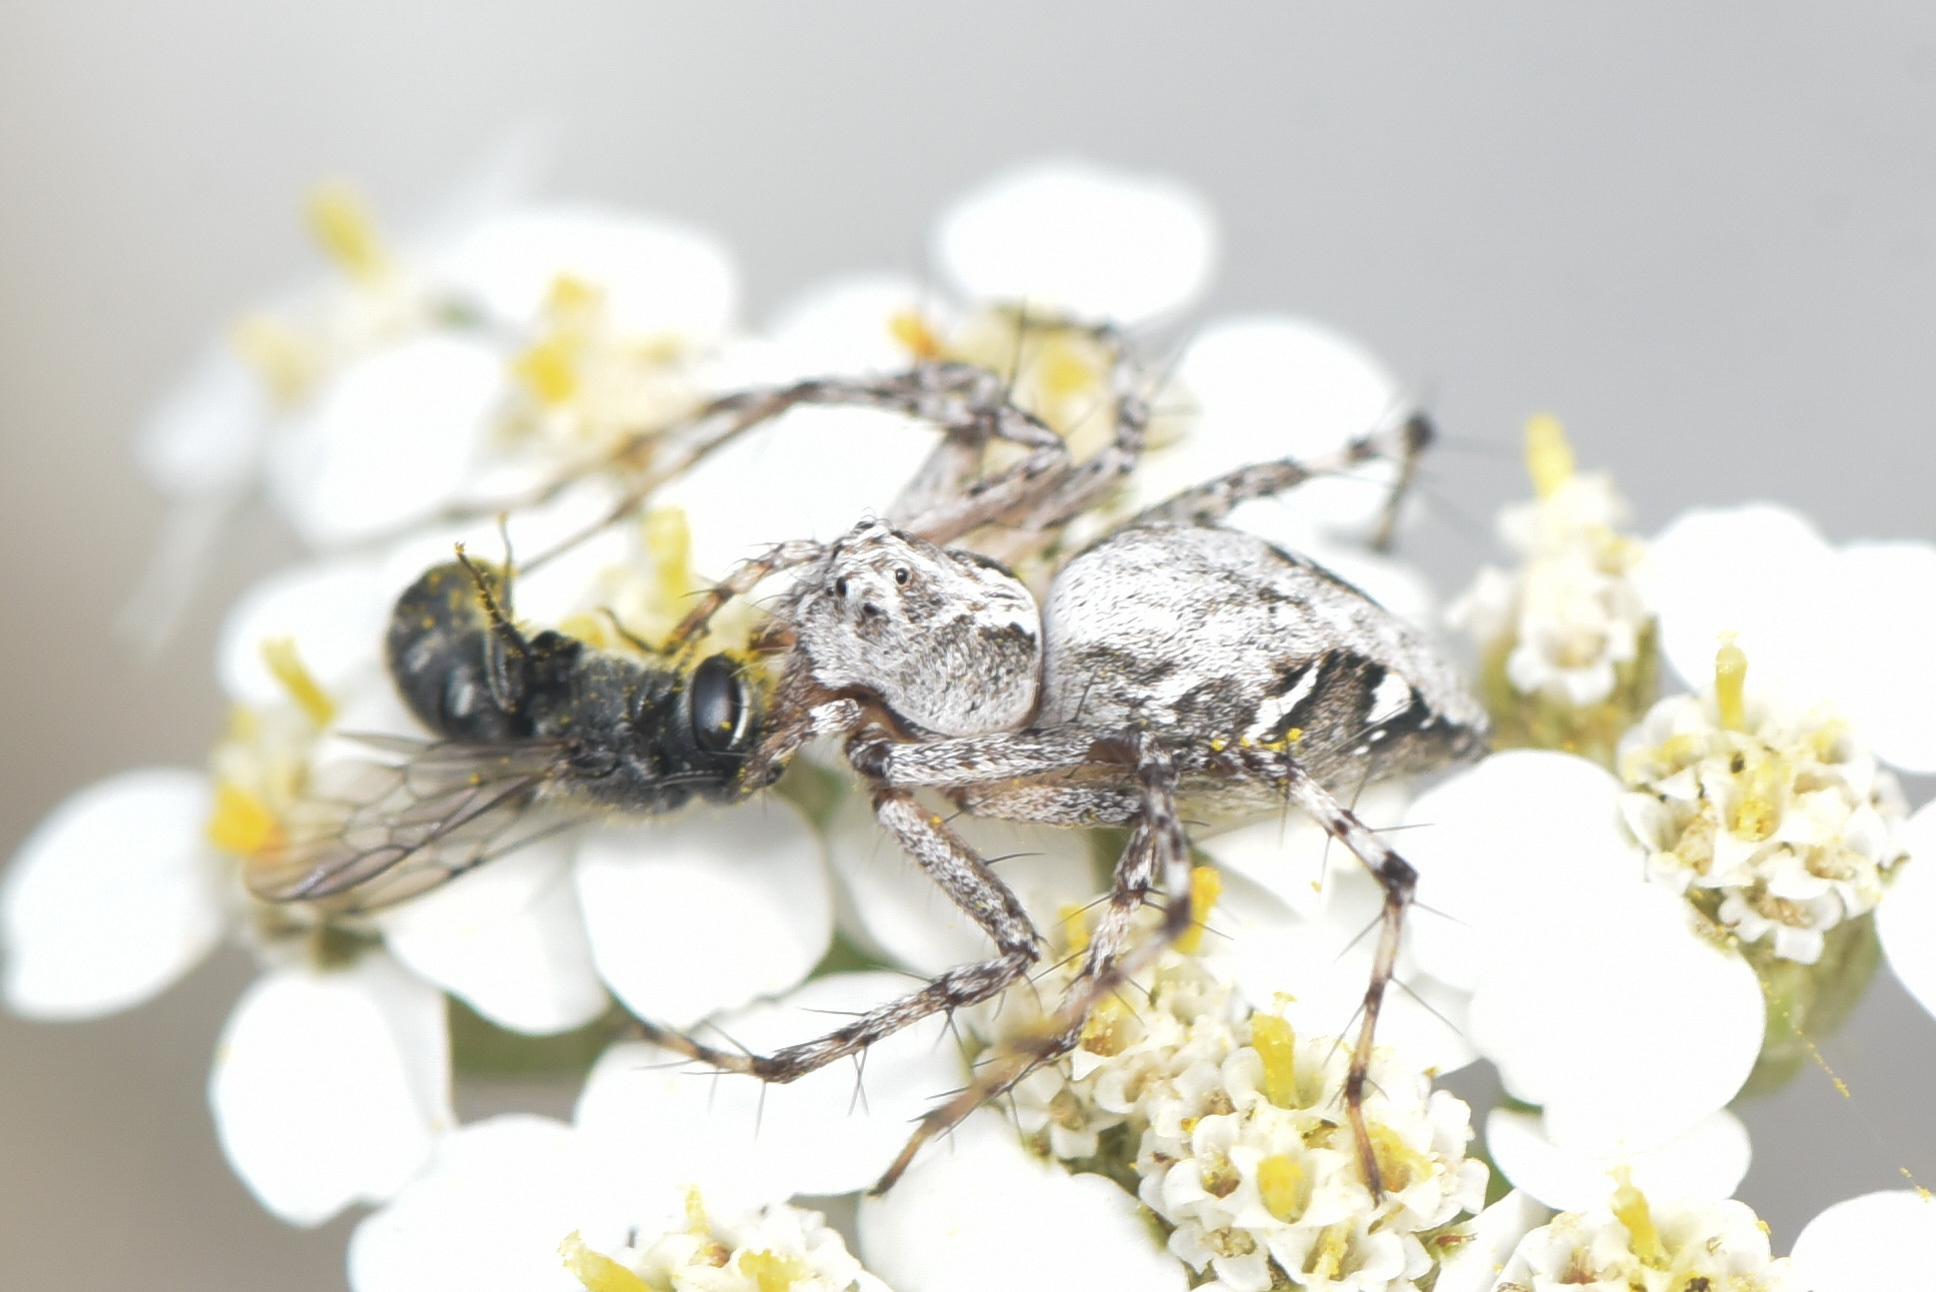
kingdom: Animalia
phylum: Arthropoda
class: Arachnida
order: Araneae
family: Oxyopidae
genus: Oxyopes
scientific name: Oxyopes scalaris
